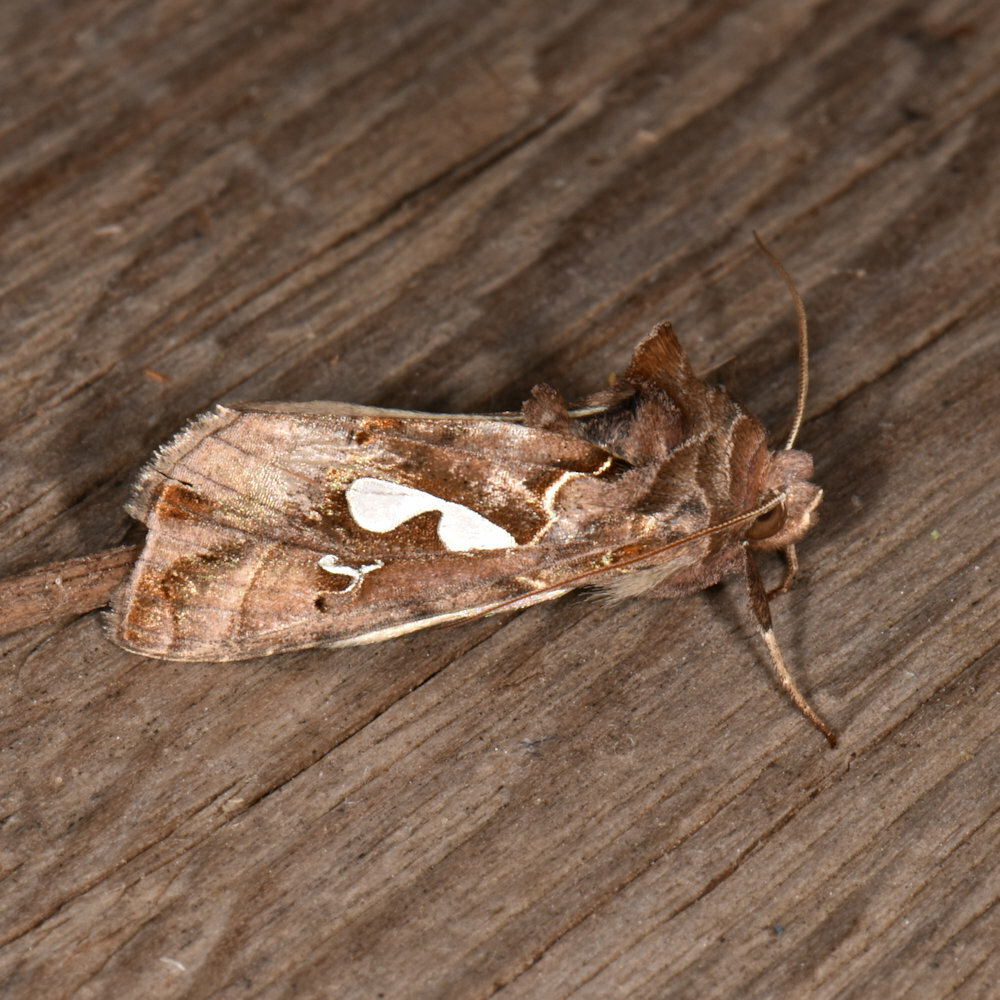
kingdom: Animalia
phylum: Arthropoda
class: Insecta
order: Lepidoptera
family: Noctuidae
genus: Megalographa
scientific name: Megalographa biloba
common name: Cutworm
